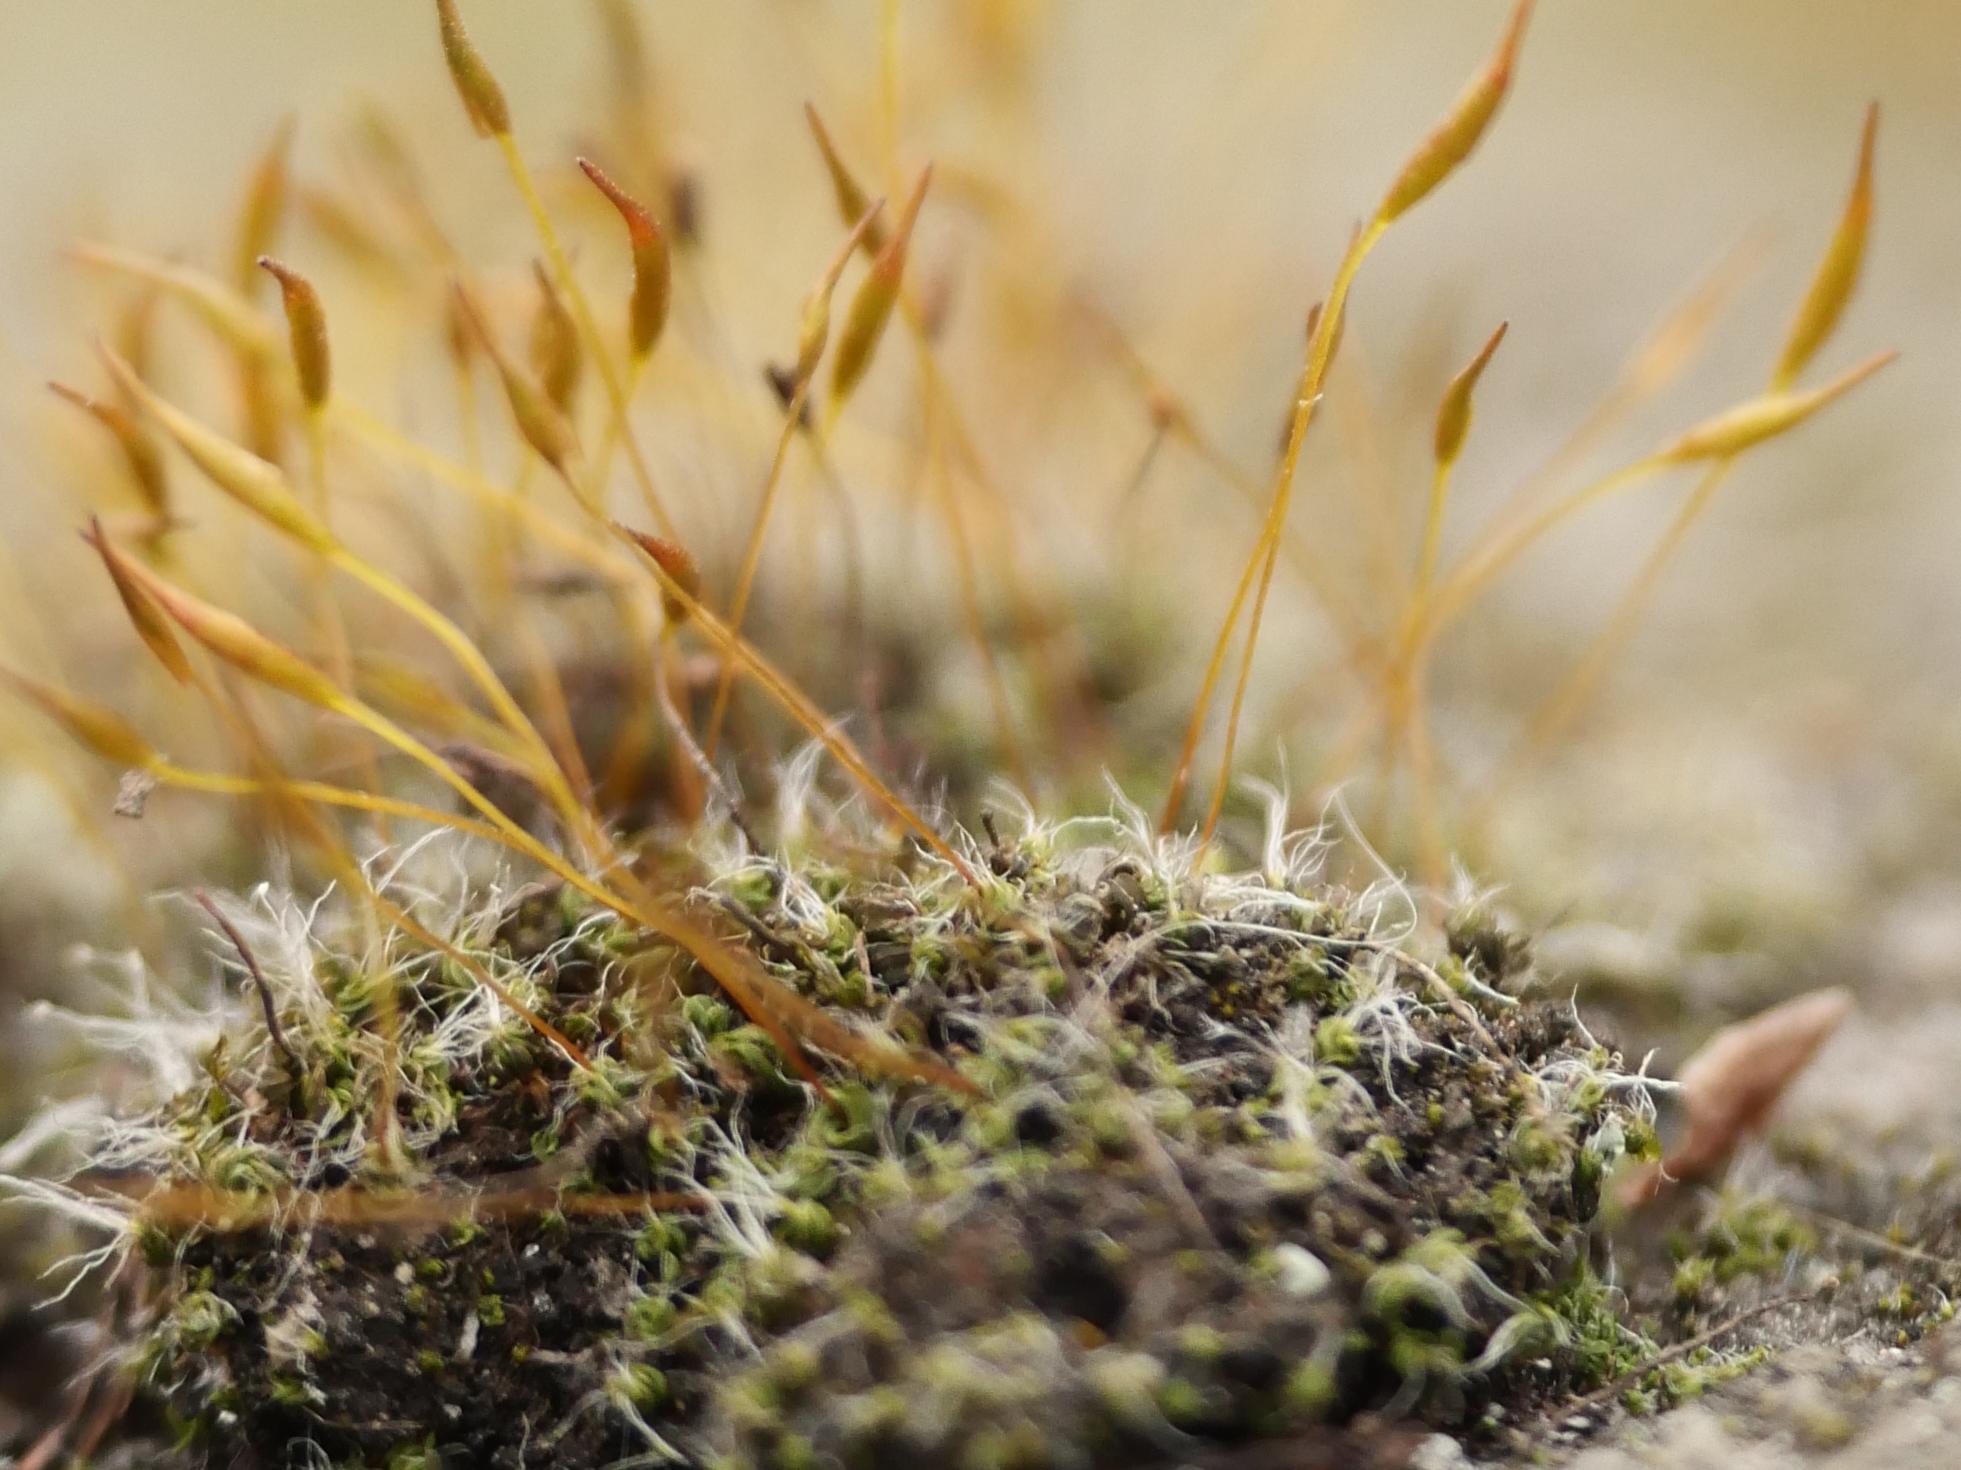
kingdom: Plantae
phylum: Bryophyta
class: Bryopsida
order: Pottiales
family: Pottiaceae
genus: Tortula
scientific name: Tortula muralis
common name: Wall screw-moss
